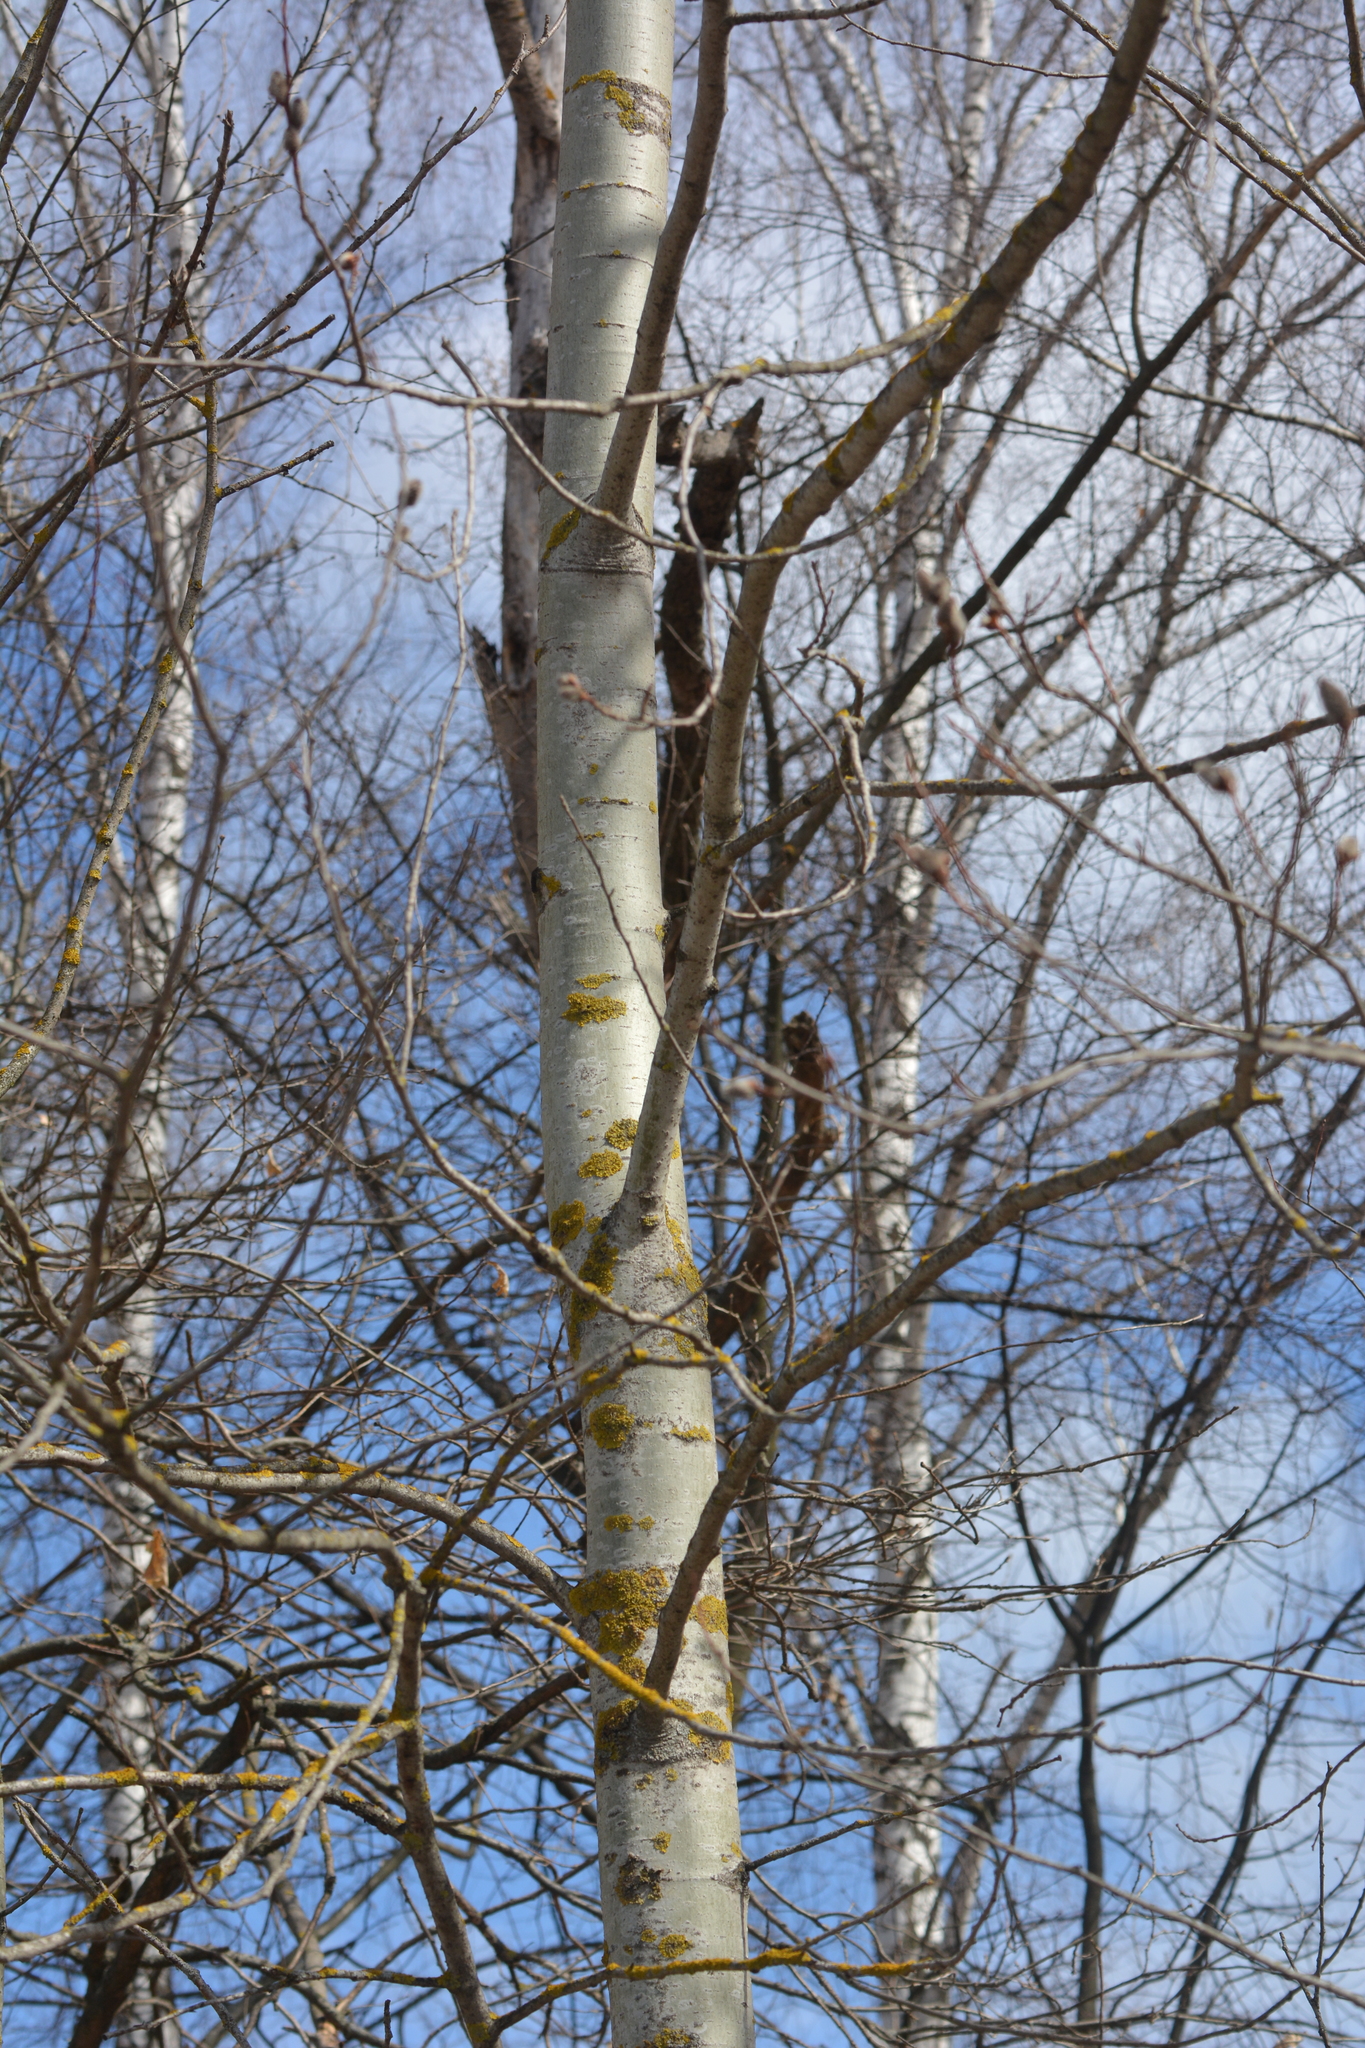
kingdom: Plantae
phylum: Tracheophyta
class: Magnoliopsida
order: Malpighiales
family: Salicaceae
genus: Populus
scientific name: Populus tremula
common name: European aspen
